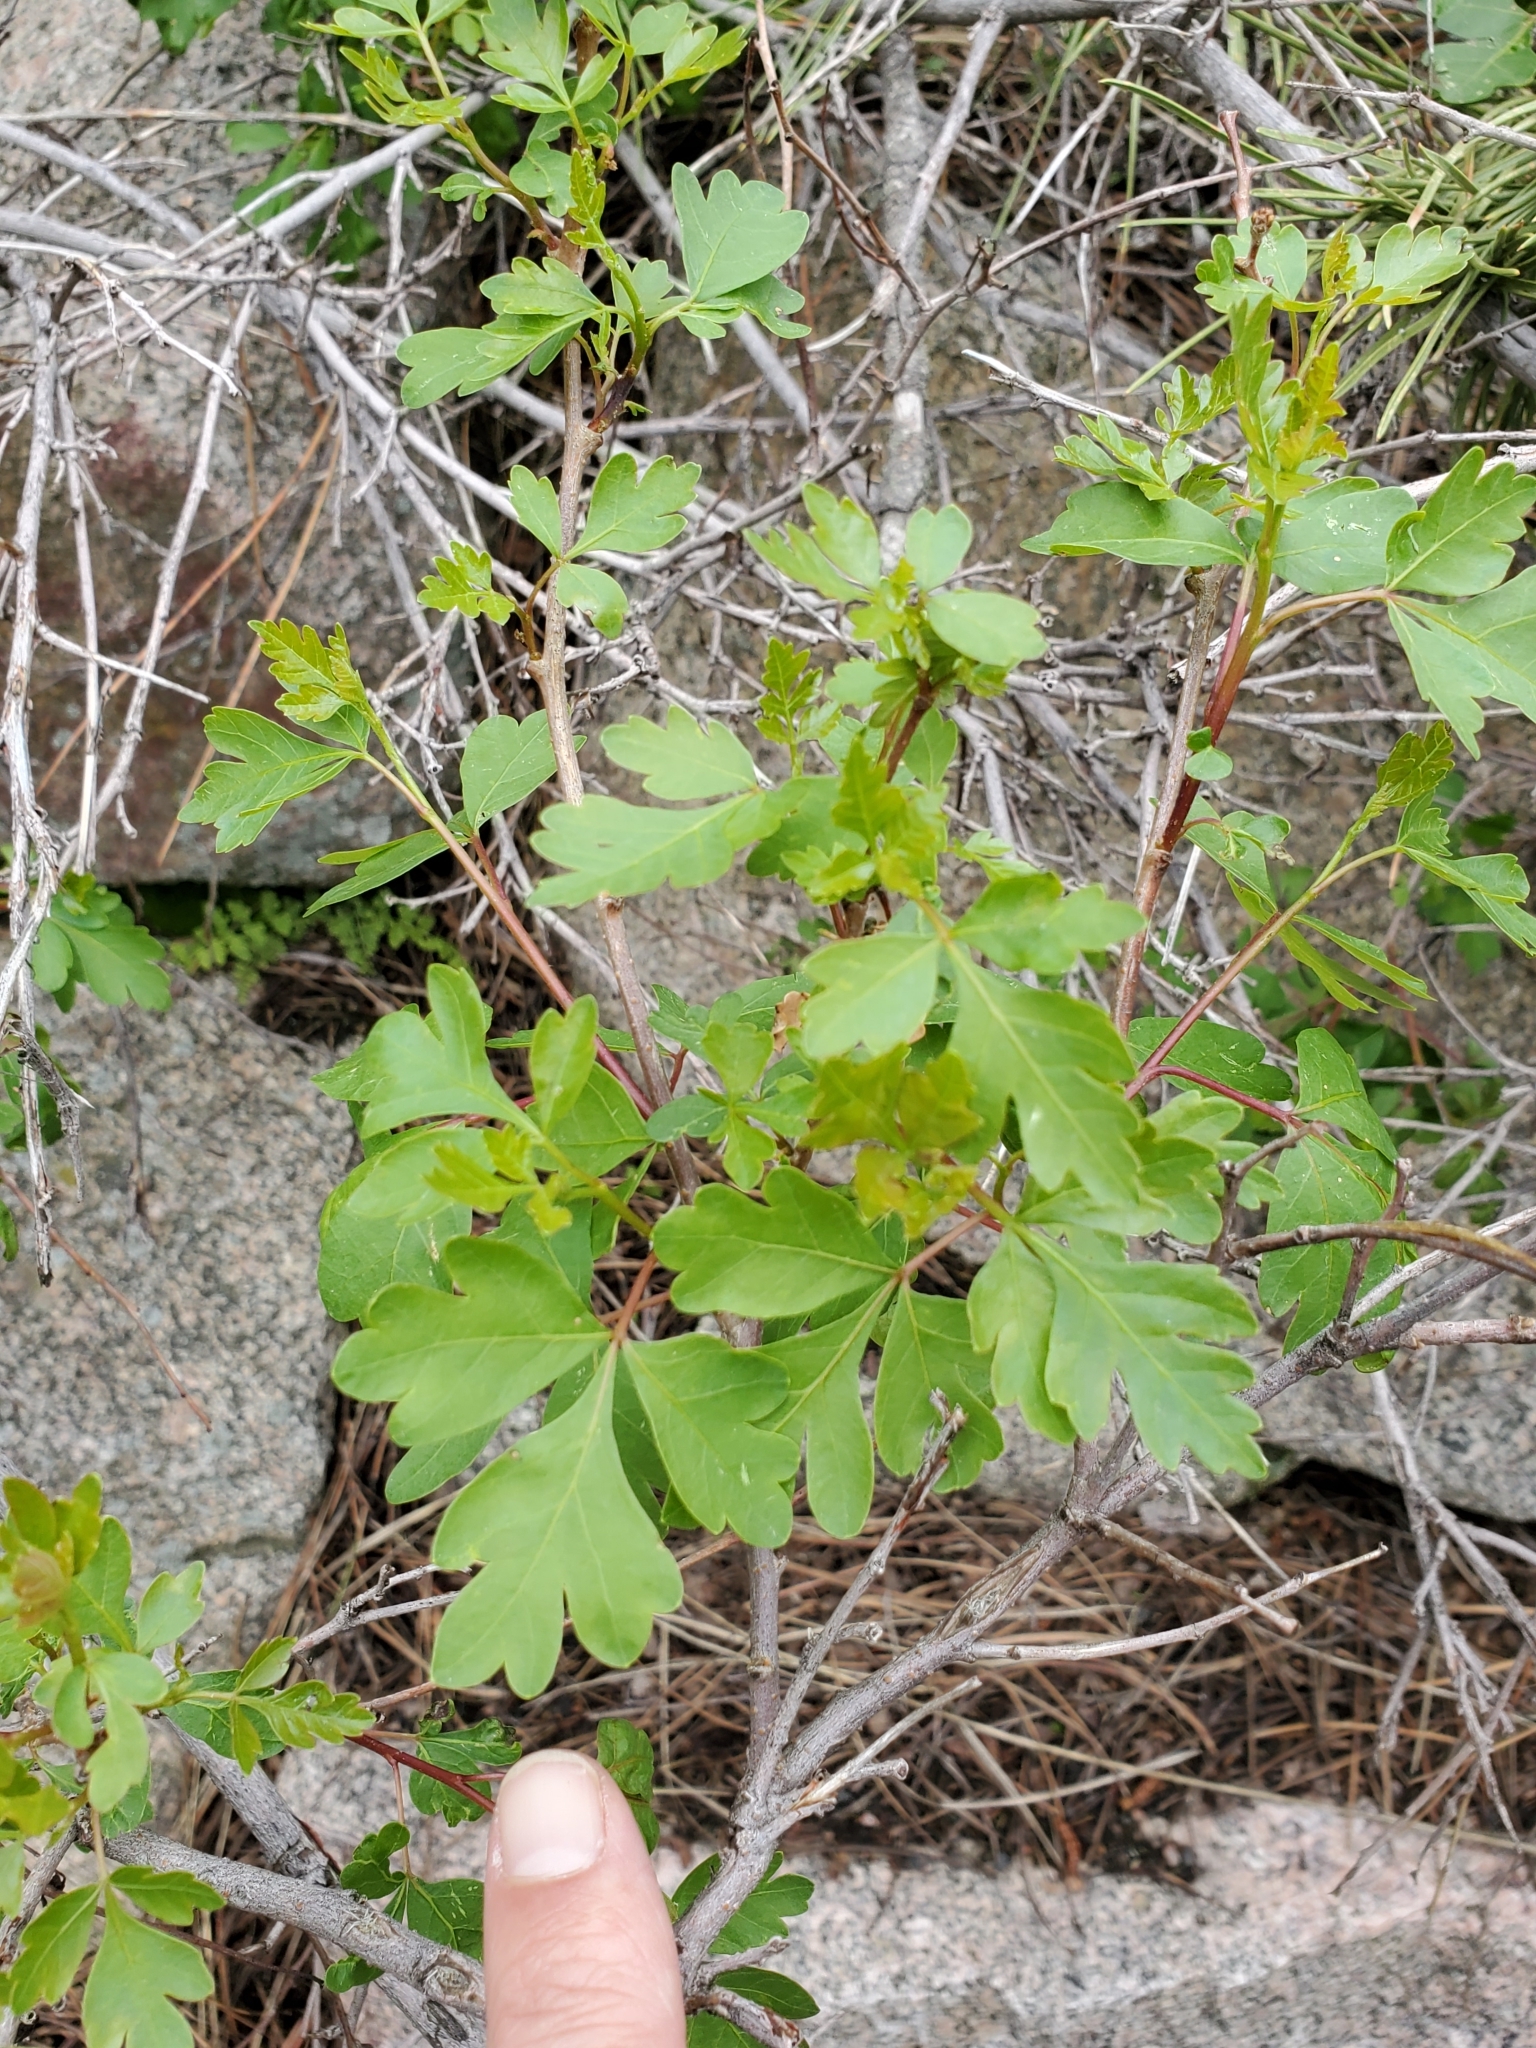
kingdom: Plantae
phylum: Tracheophyta
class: Magnoliopsida
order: Sapindales
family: Anacardiaceae
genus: Rhus
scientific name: Rhus aromatica
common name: Aromatic sumac
